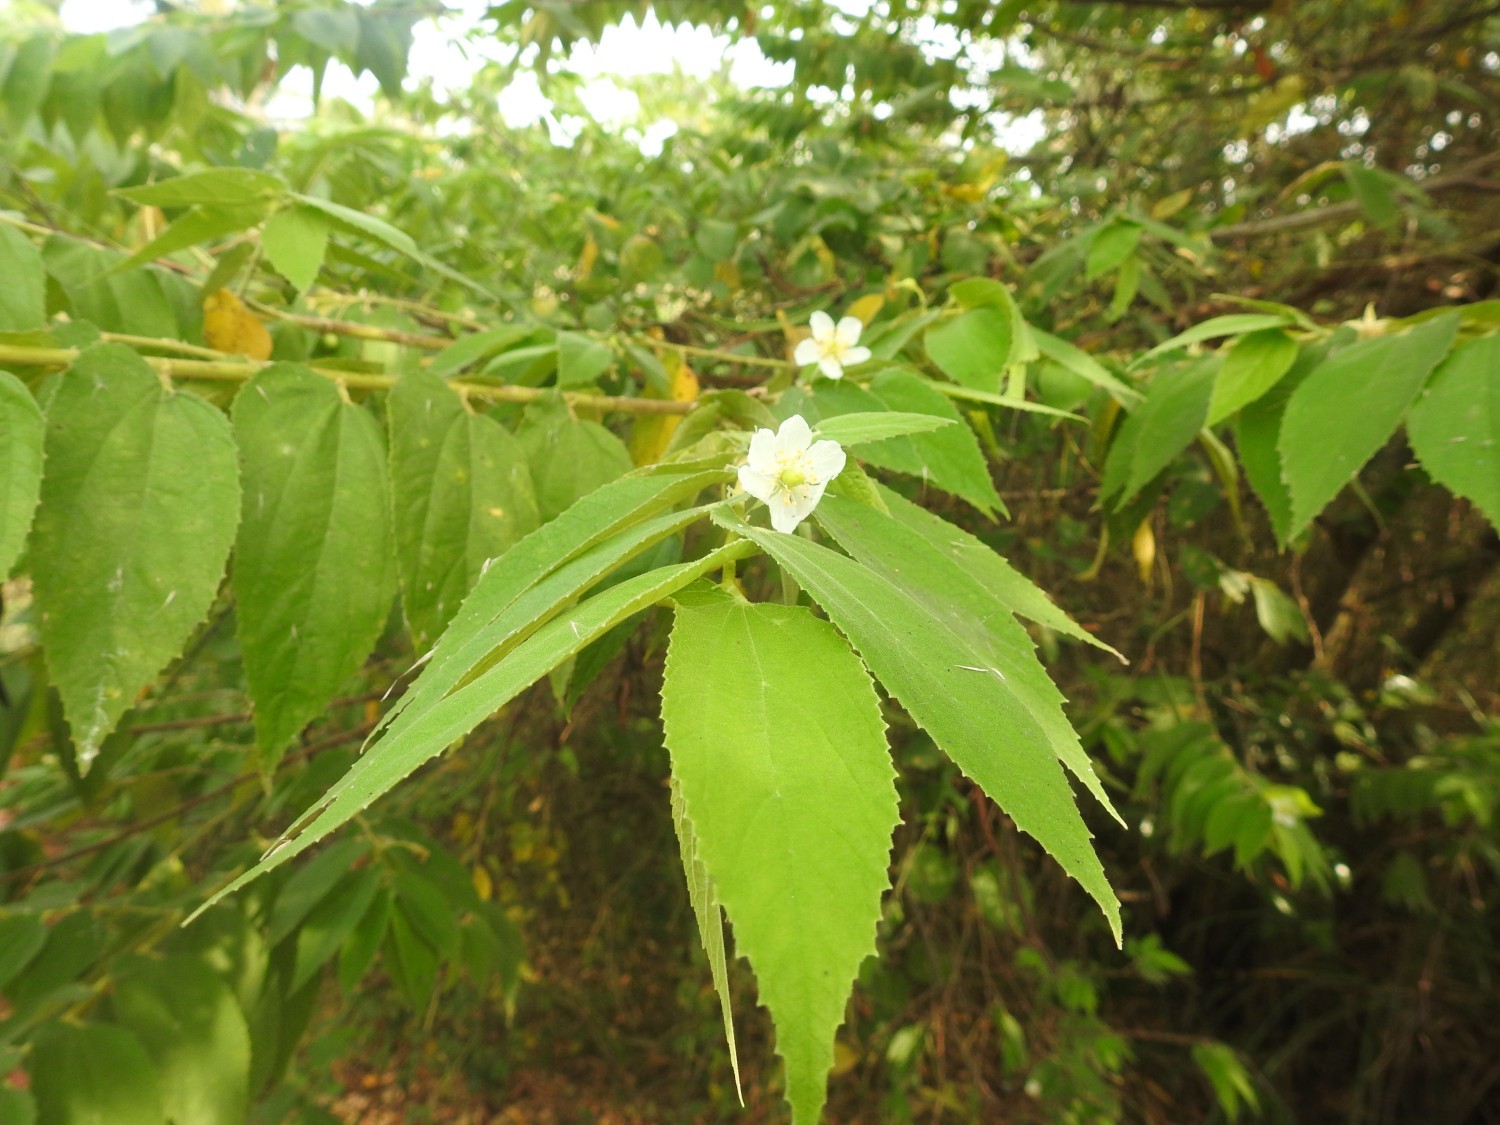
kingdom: Plantae
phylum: Tracheophyta
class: Magnoliopsida
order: Malvales
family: Muntingiaceae
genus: Muntingia
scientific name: Muntingia calabura
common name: Strawberrytree
